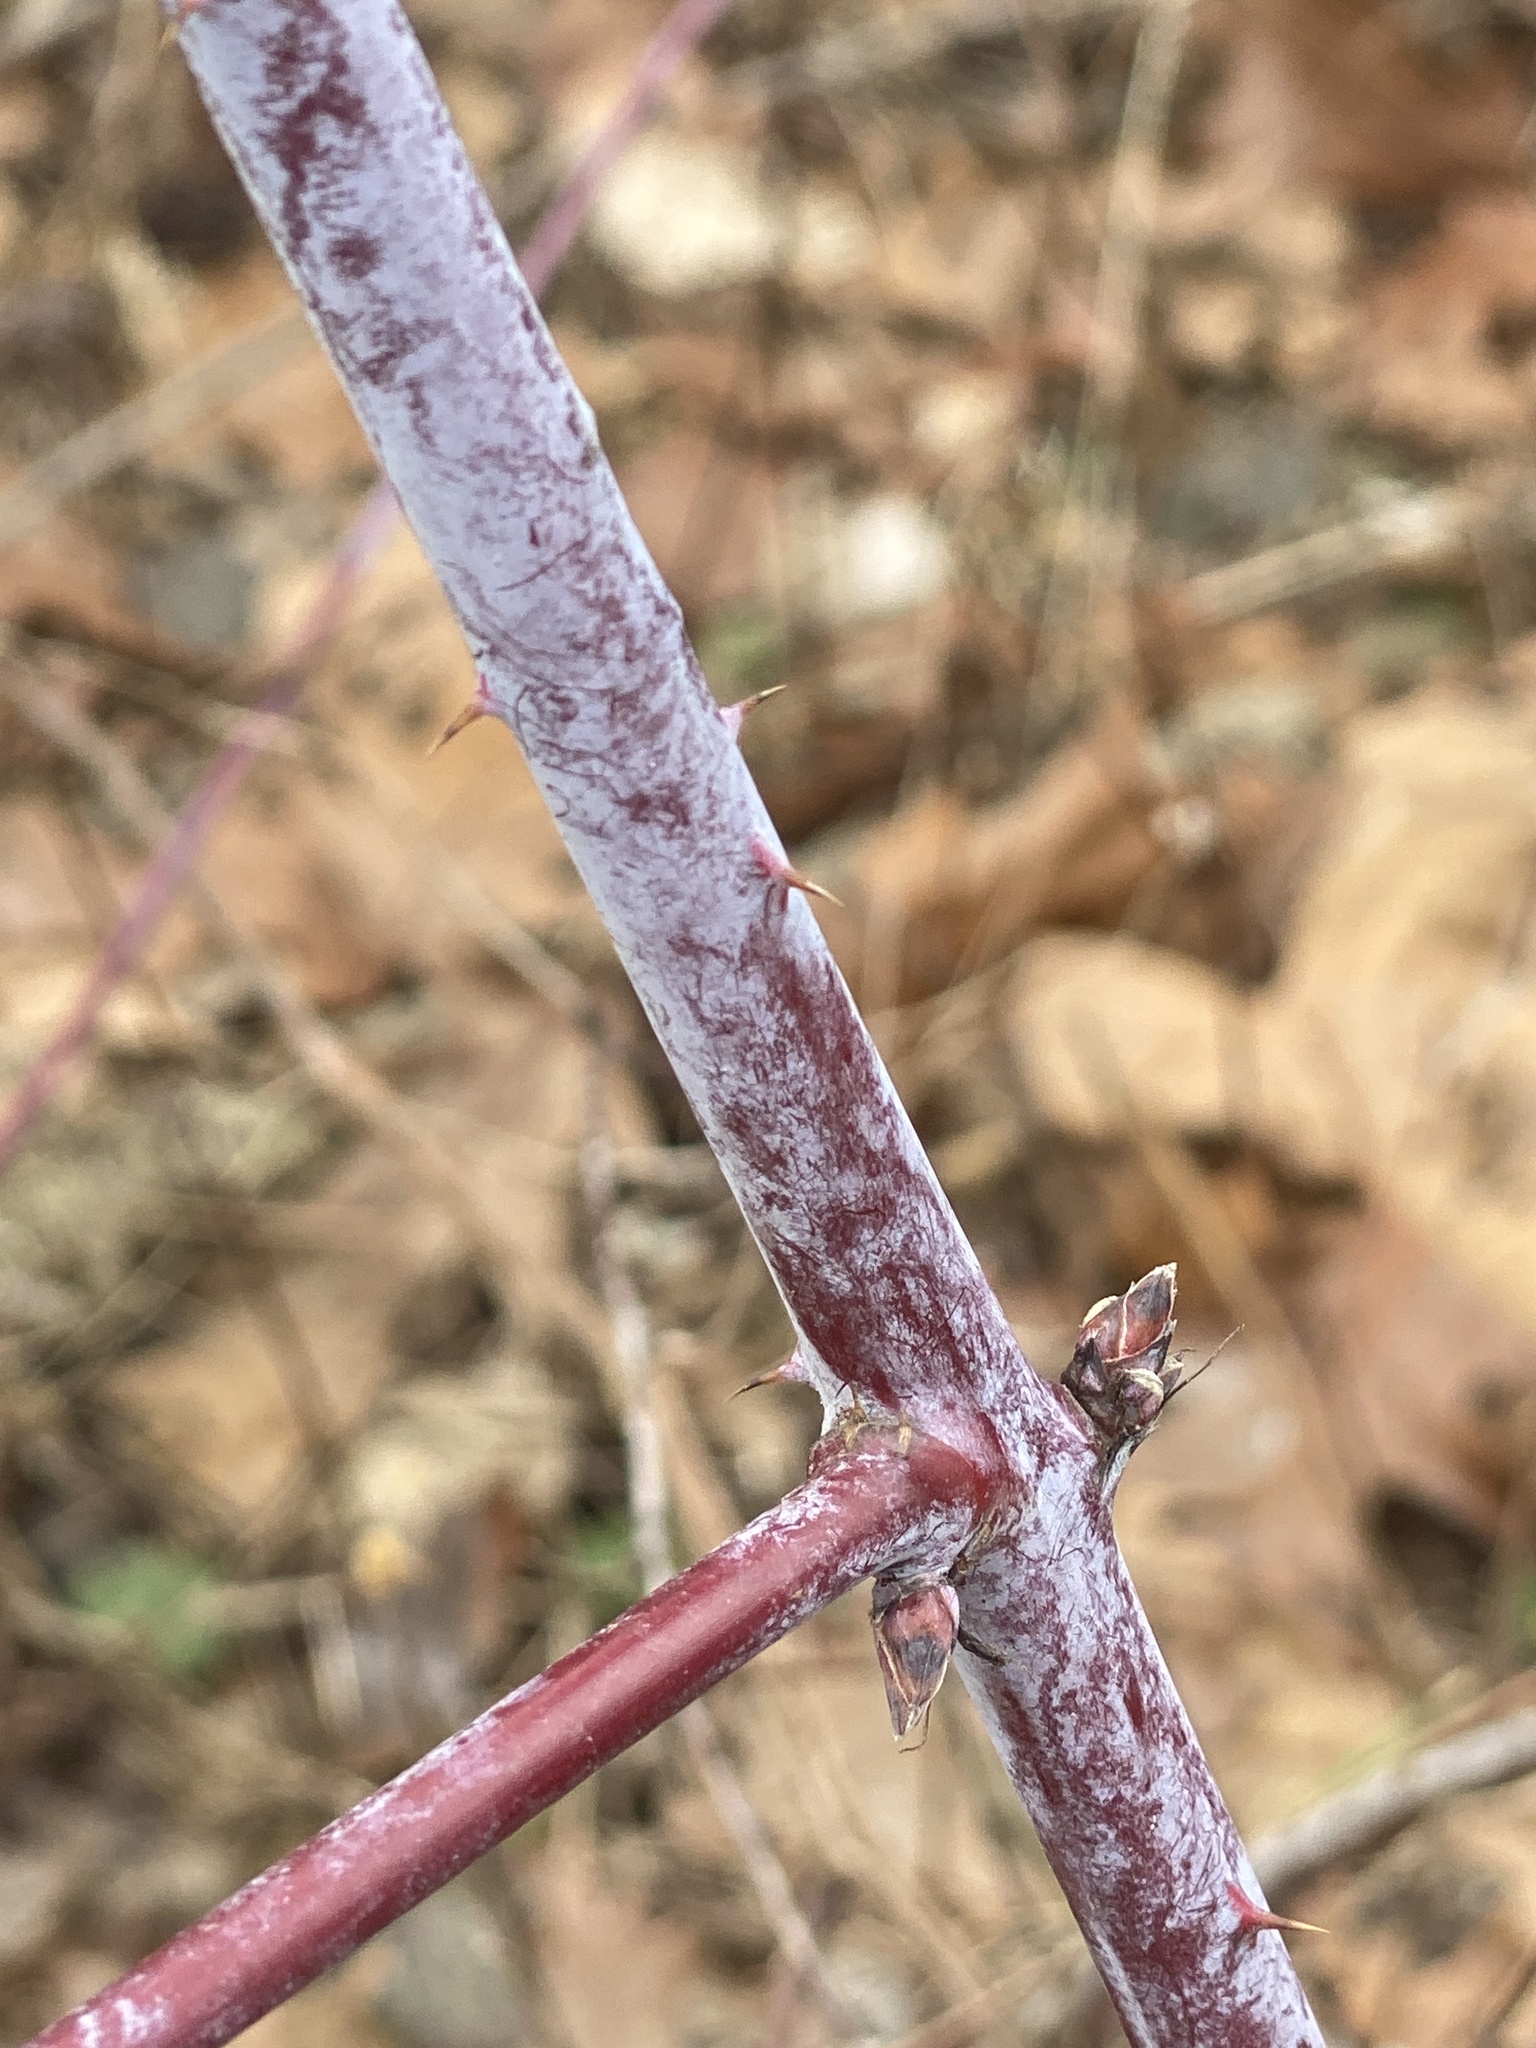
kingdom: Plantae
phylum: Tracheophyta
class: Magnoliopsida
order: Rosales
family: Rosaceae
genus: Rubus
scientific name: Rubus occidentalis
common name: Black raspberry
